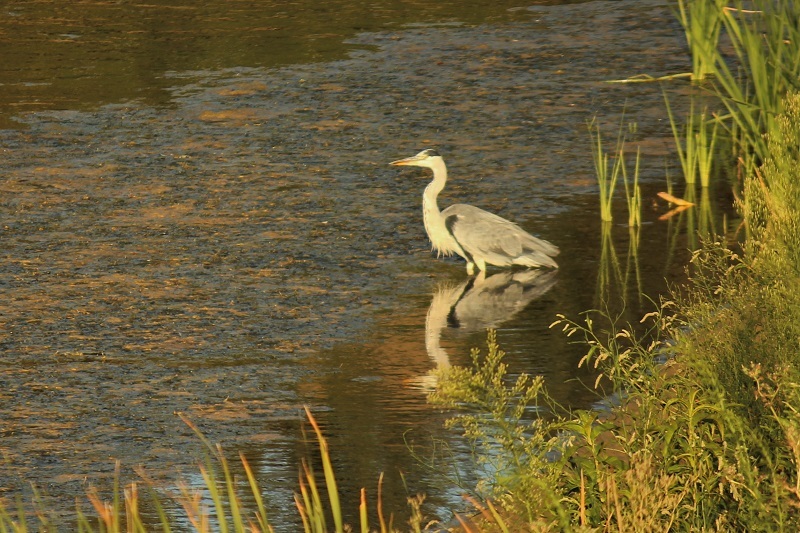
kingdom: Animalia
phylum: Chordata
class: Aves
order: Pelecaniformes
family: Ardeidae
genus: Ardea
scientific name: Ardea cinerea
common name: Grey heron
